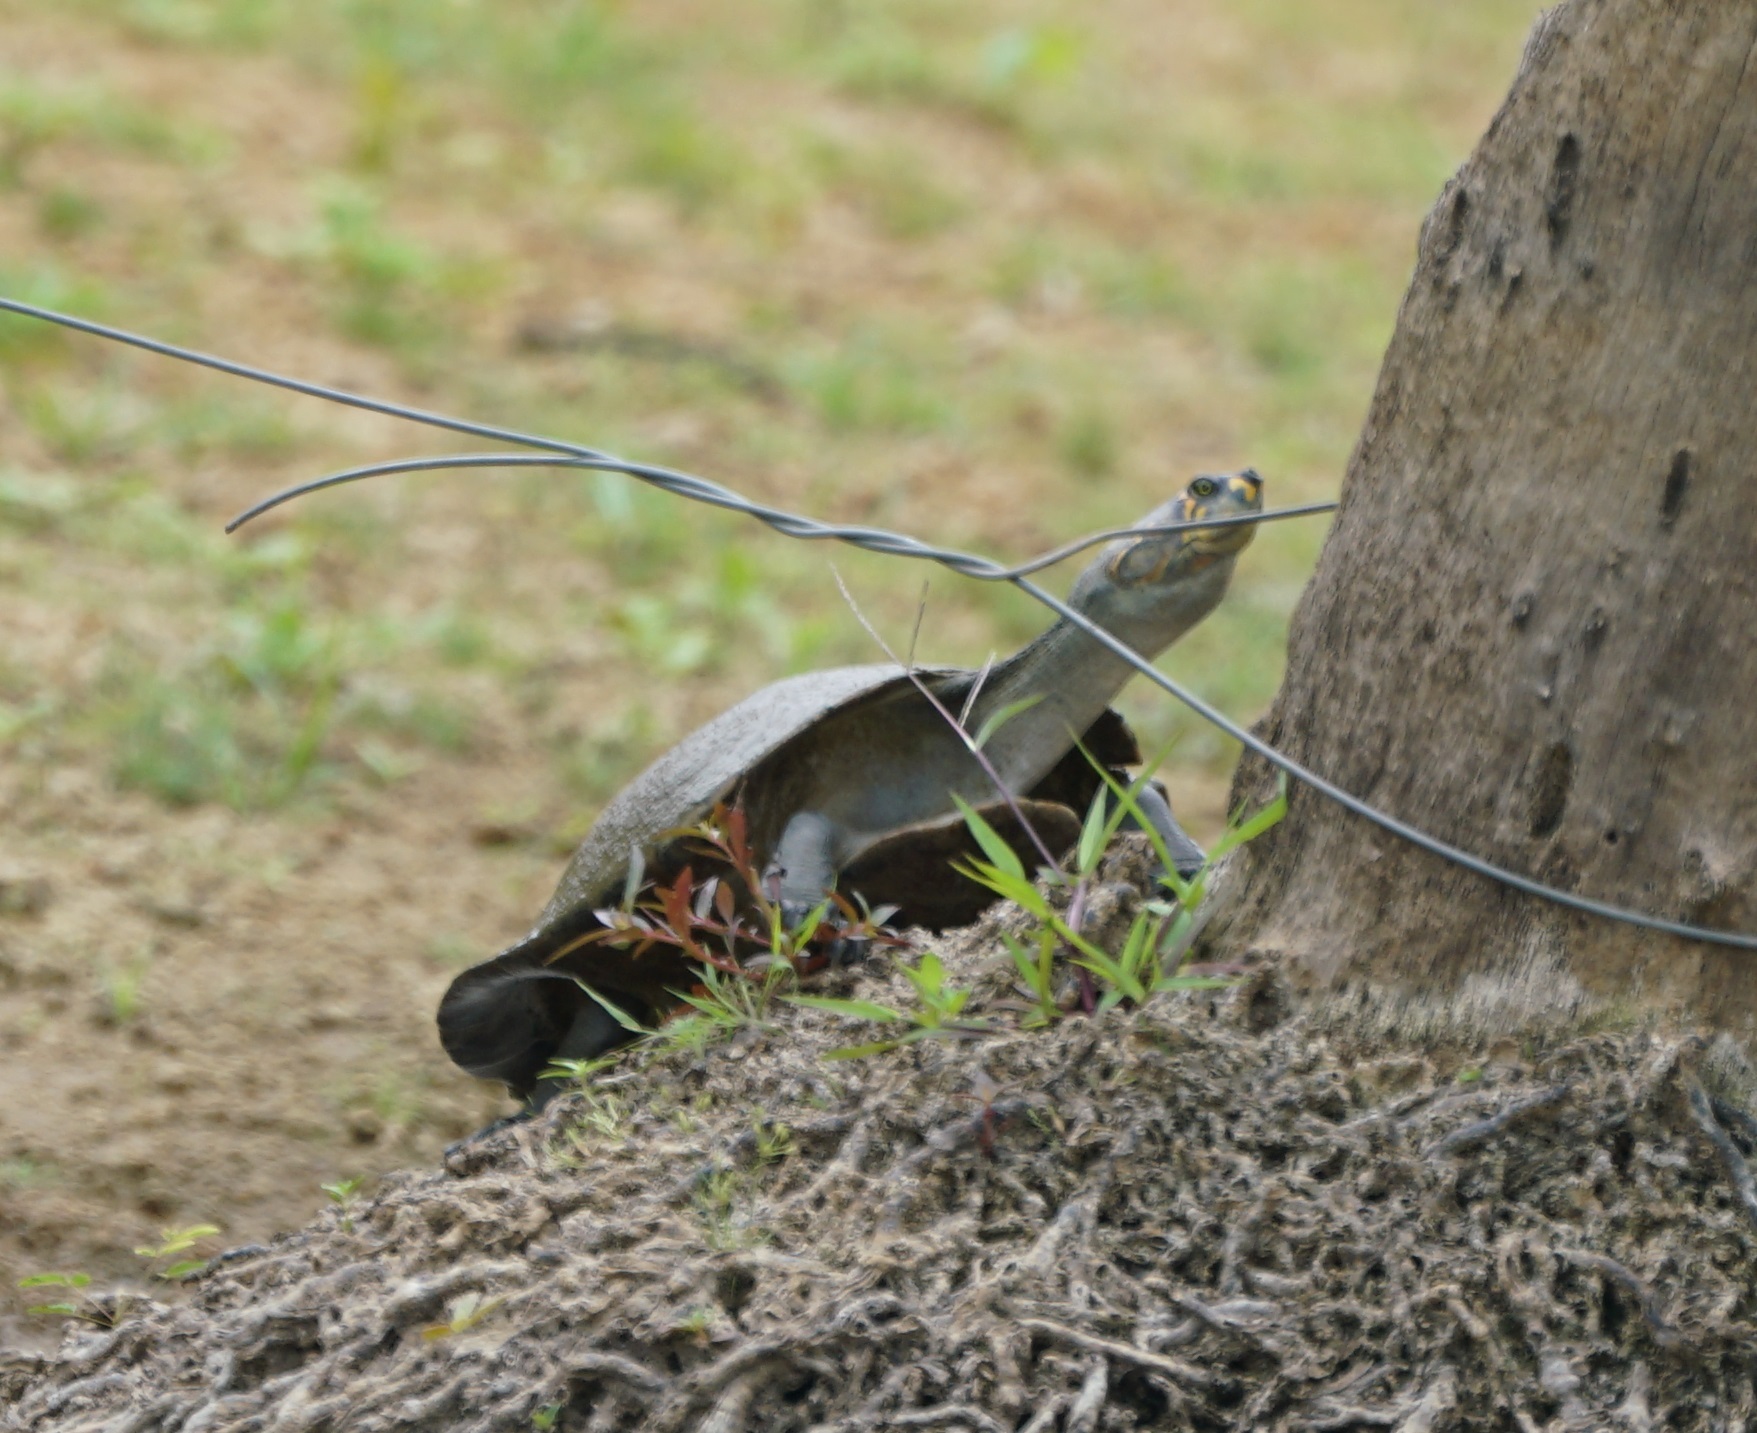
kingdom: Animalia
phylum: Chordata
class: Testudines
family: Podocnemididae
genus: Podocnemis
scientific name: Podocnemis unifilis
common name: Yellow-spotted amazon river turtle
